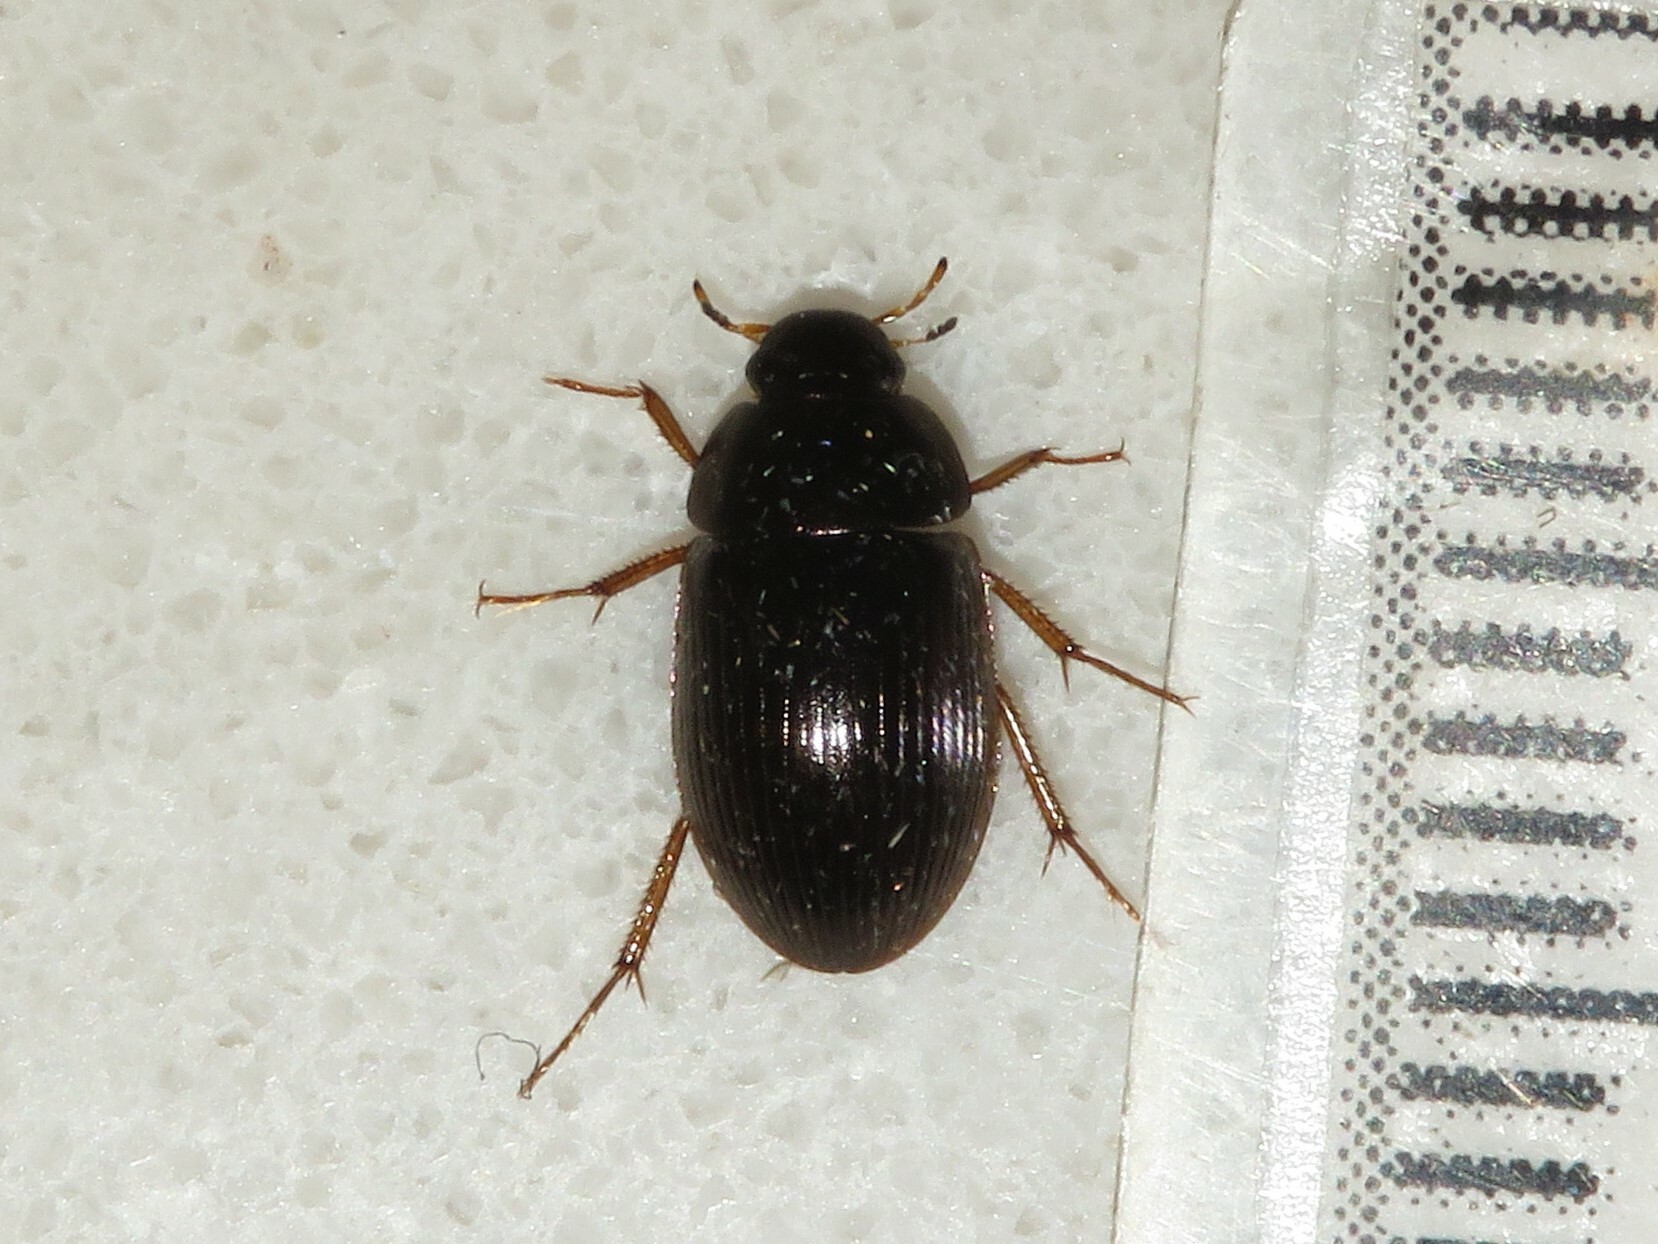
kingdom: Animalia
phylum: Arthropoda
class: Insecta
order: Coleoptera
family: Hydrophilidae
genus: Hydrobius
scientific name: Hydrobius fuscipes
